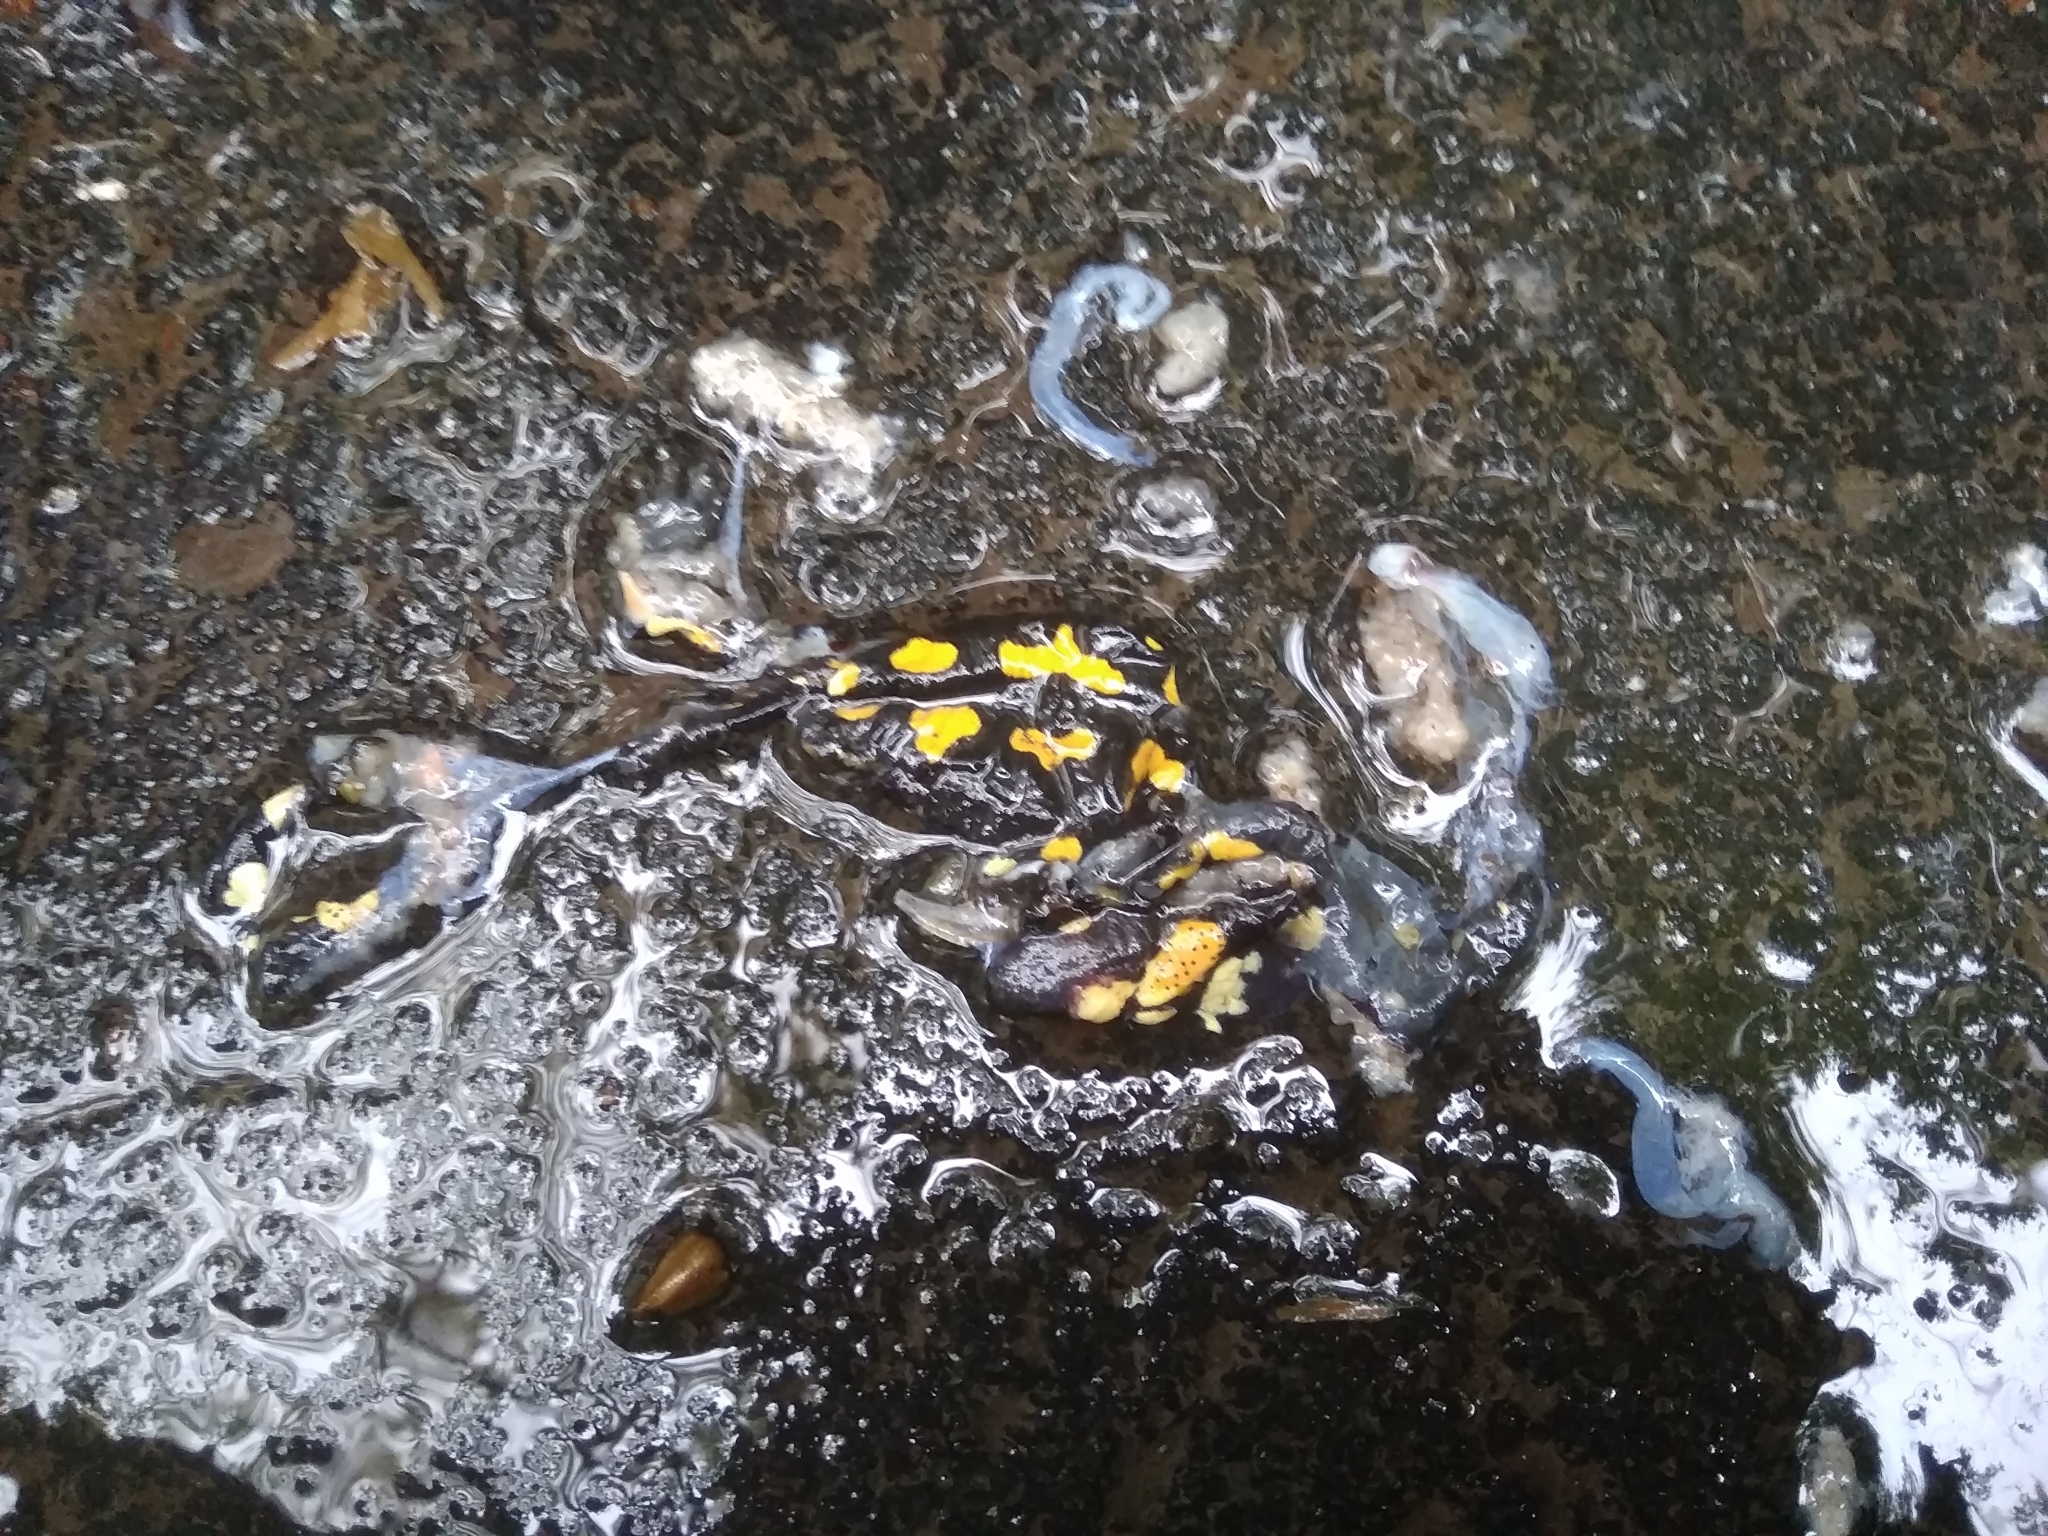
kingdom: Animalia
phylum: Chordata
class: Amphibia
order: Caudata
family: Salamandridae
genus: Salamandra
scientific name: Salamandra salamandra
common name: Fire salamander
